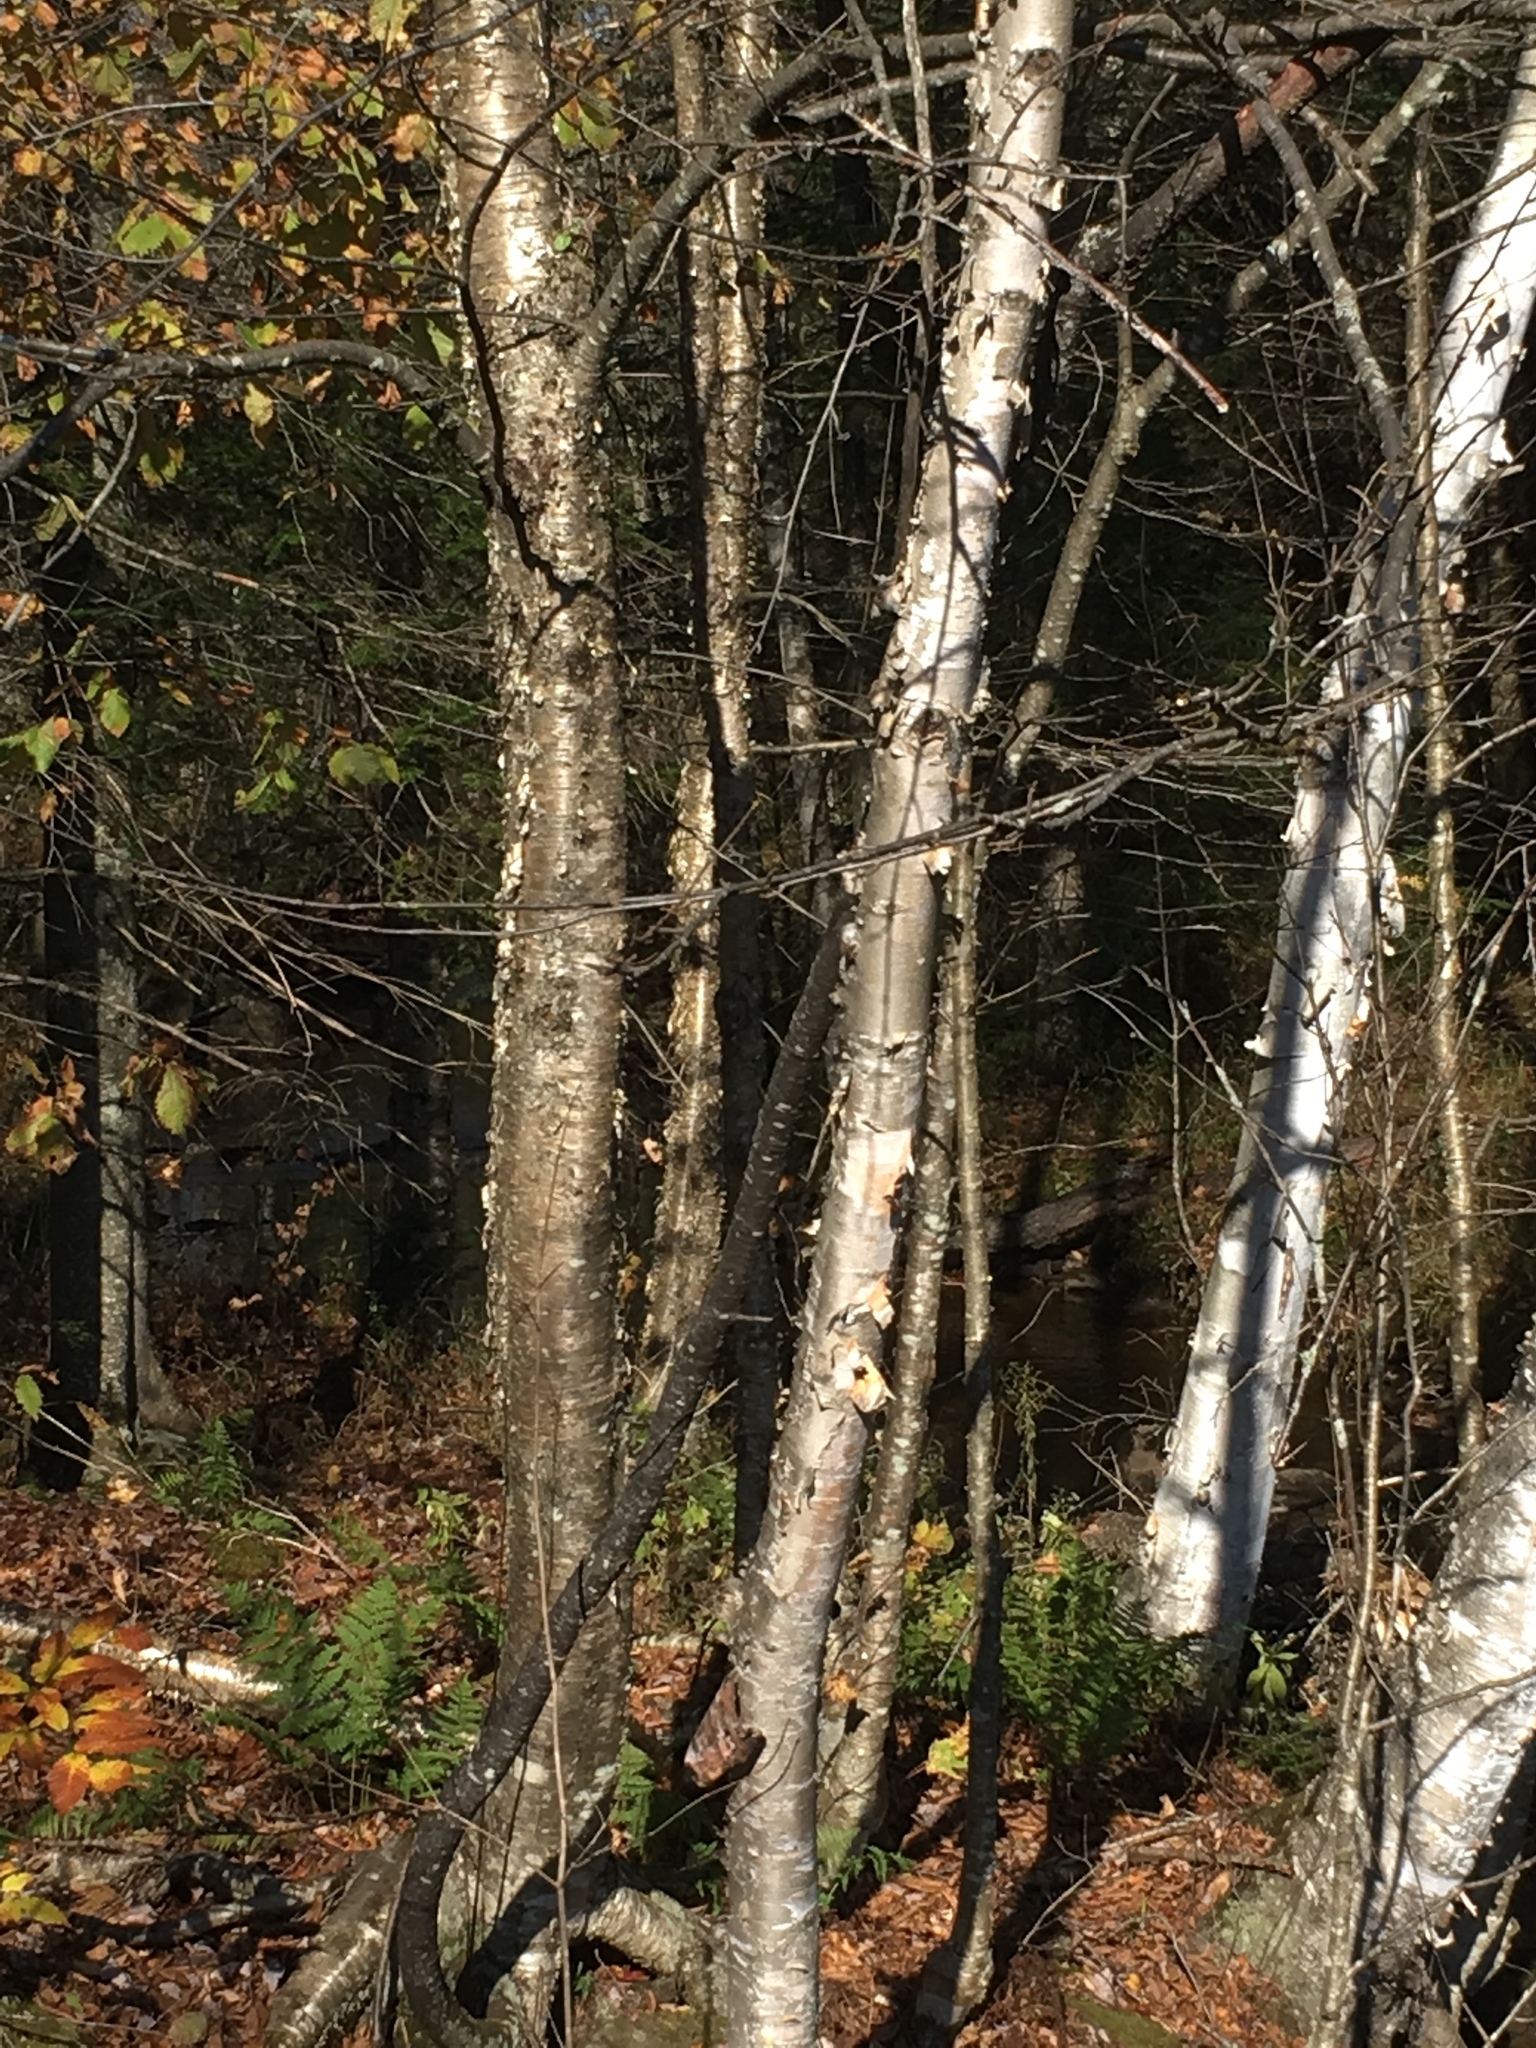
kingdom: Plantae
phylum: Tracheophyta
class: Magnoliopsida
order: Fagales
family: Betulaceae
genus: Betula
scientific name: Betula alleghaniensis
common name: Yellow birch
